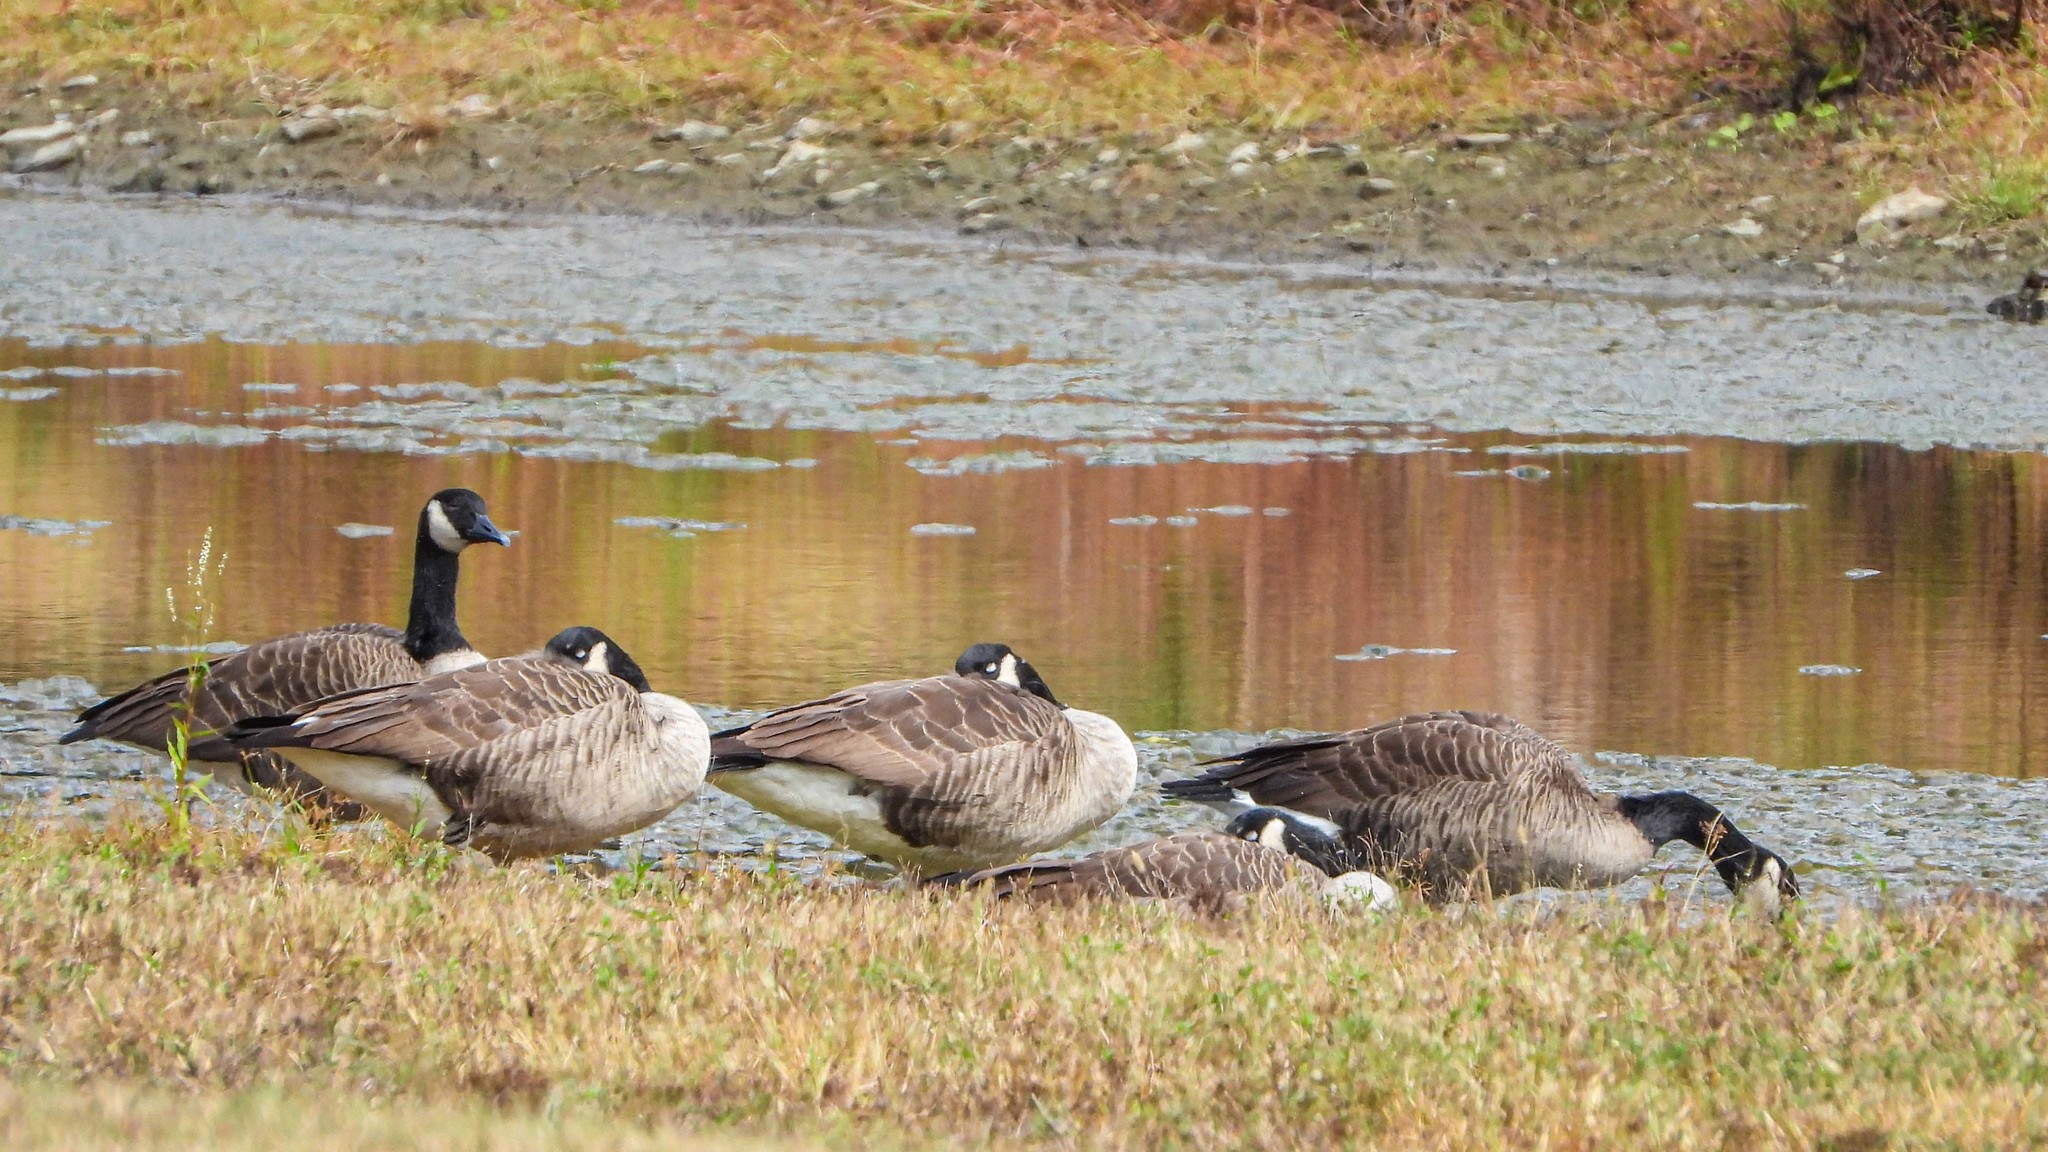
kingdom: Animalia
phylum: Chordata
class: Aves
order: Anseriformes
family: Anatidae
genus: Branta
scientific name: Branta canadensis
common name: Canada goose
